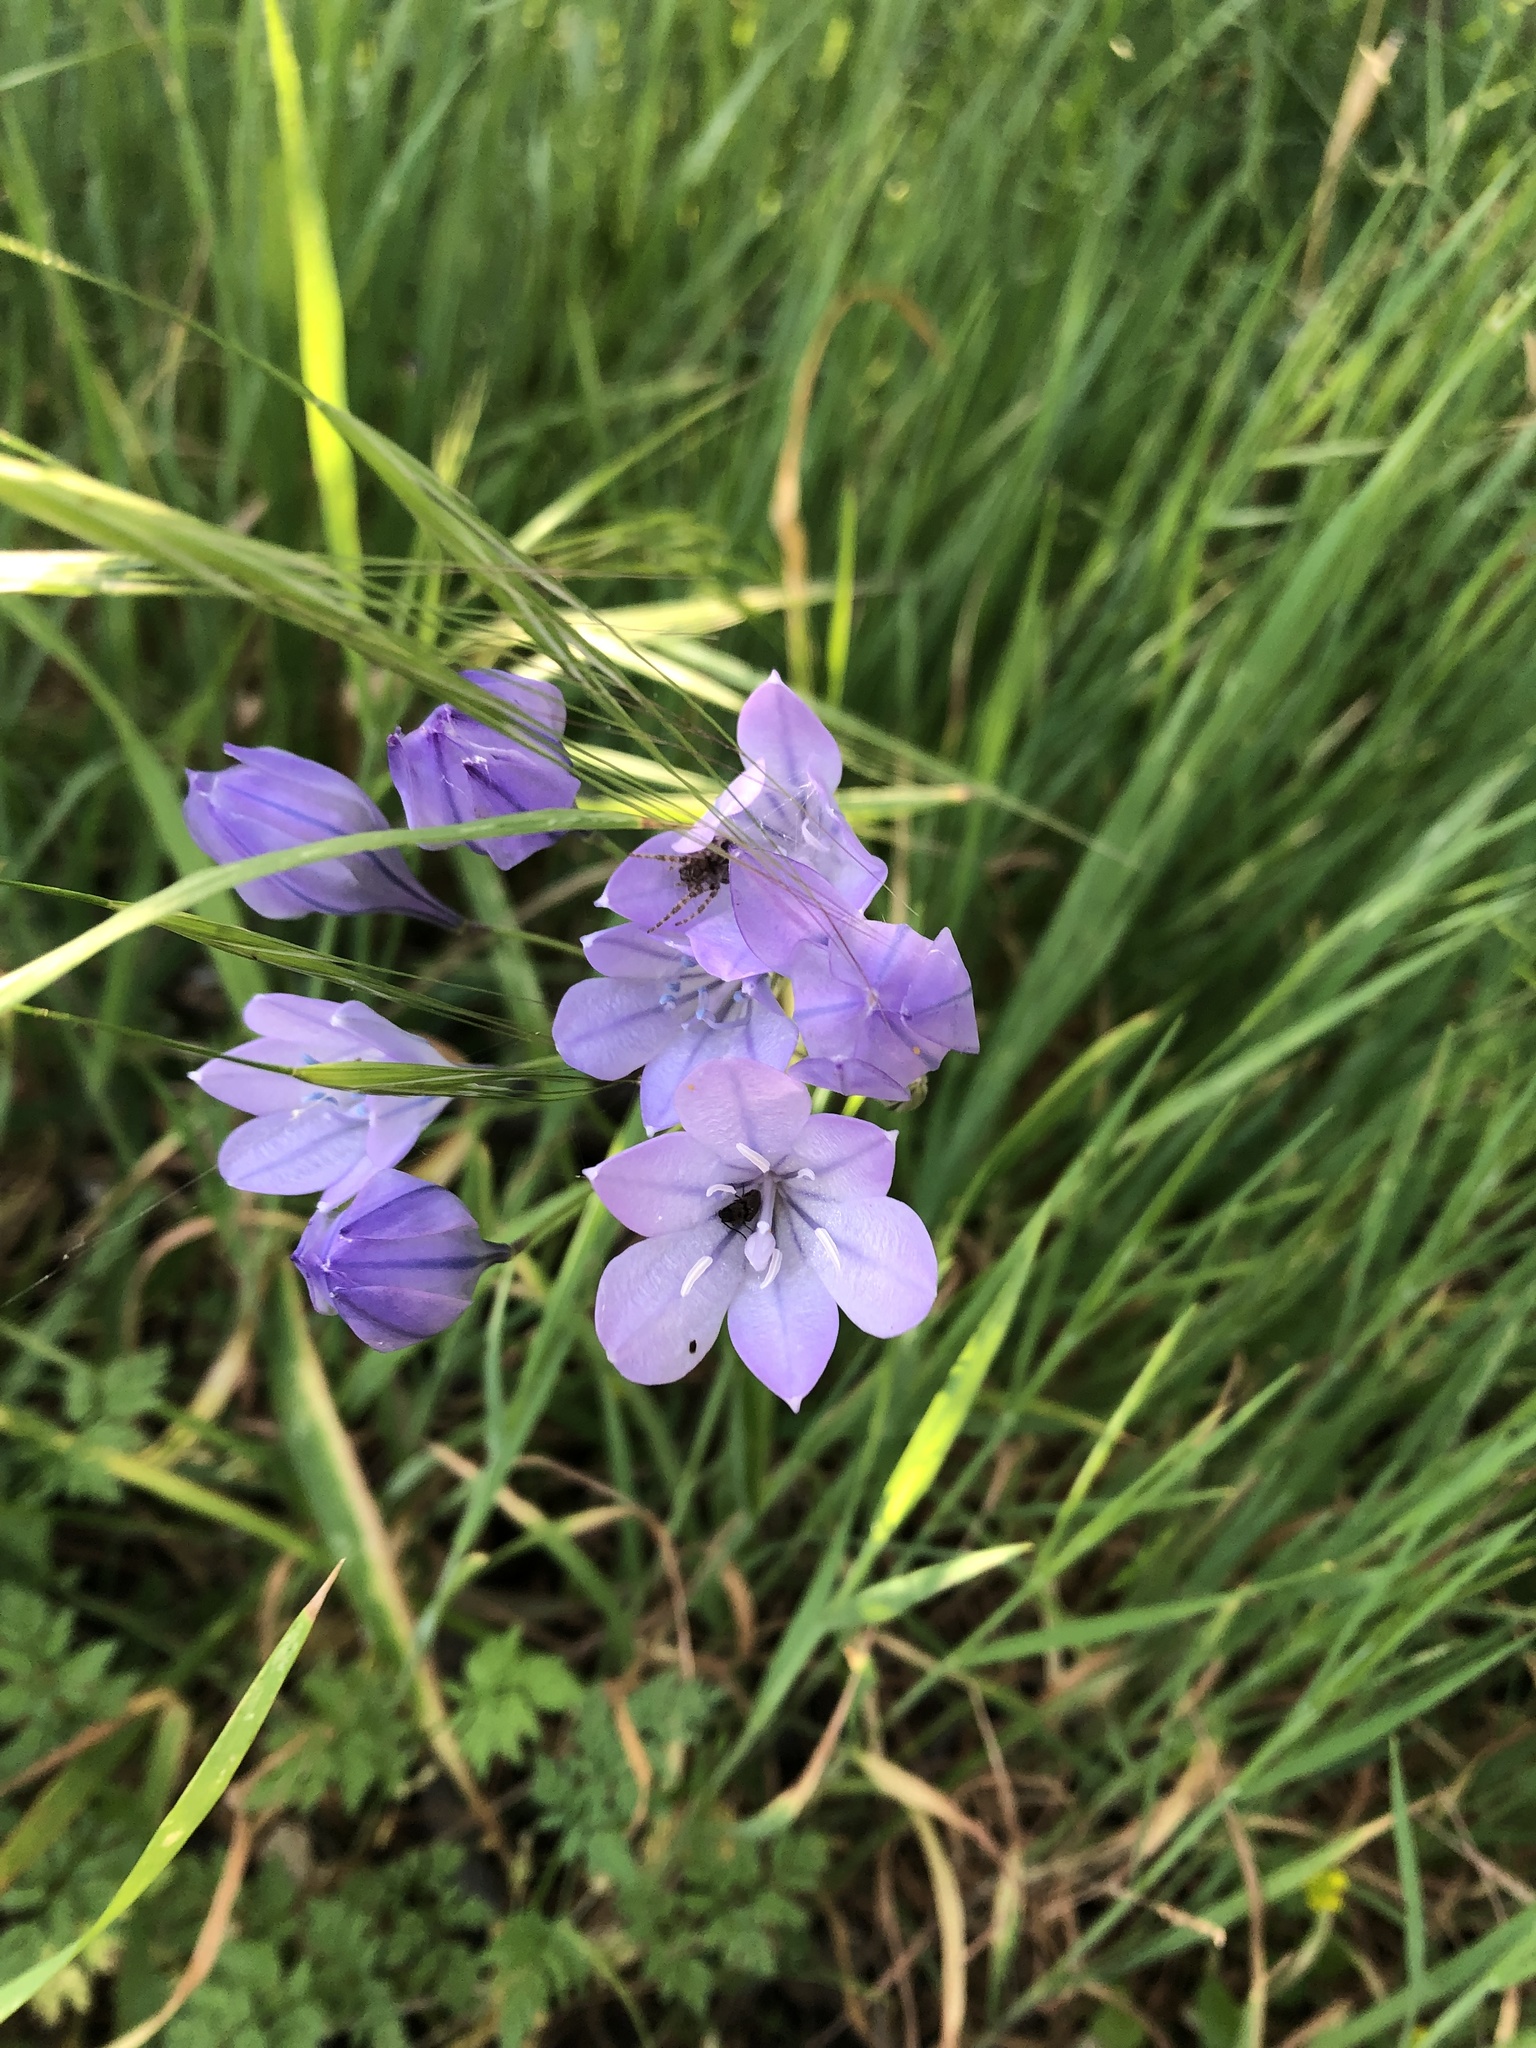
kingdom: Plantae
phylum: Tracheophyta
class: Liliopsida
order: Asparagales
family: Asparagaceae
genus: Triteleia
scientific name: Triteleia laxa
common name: Triplet-lily
